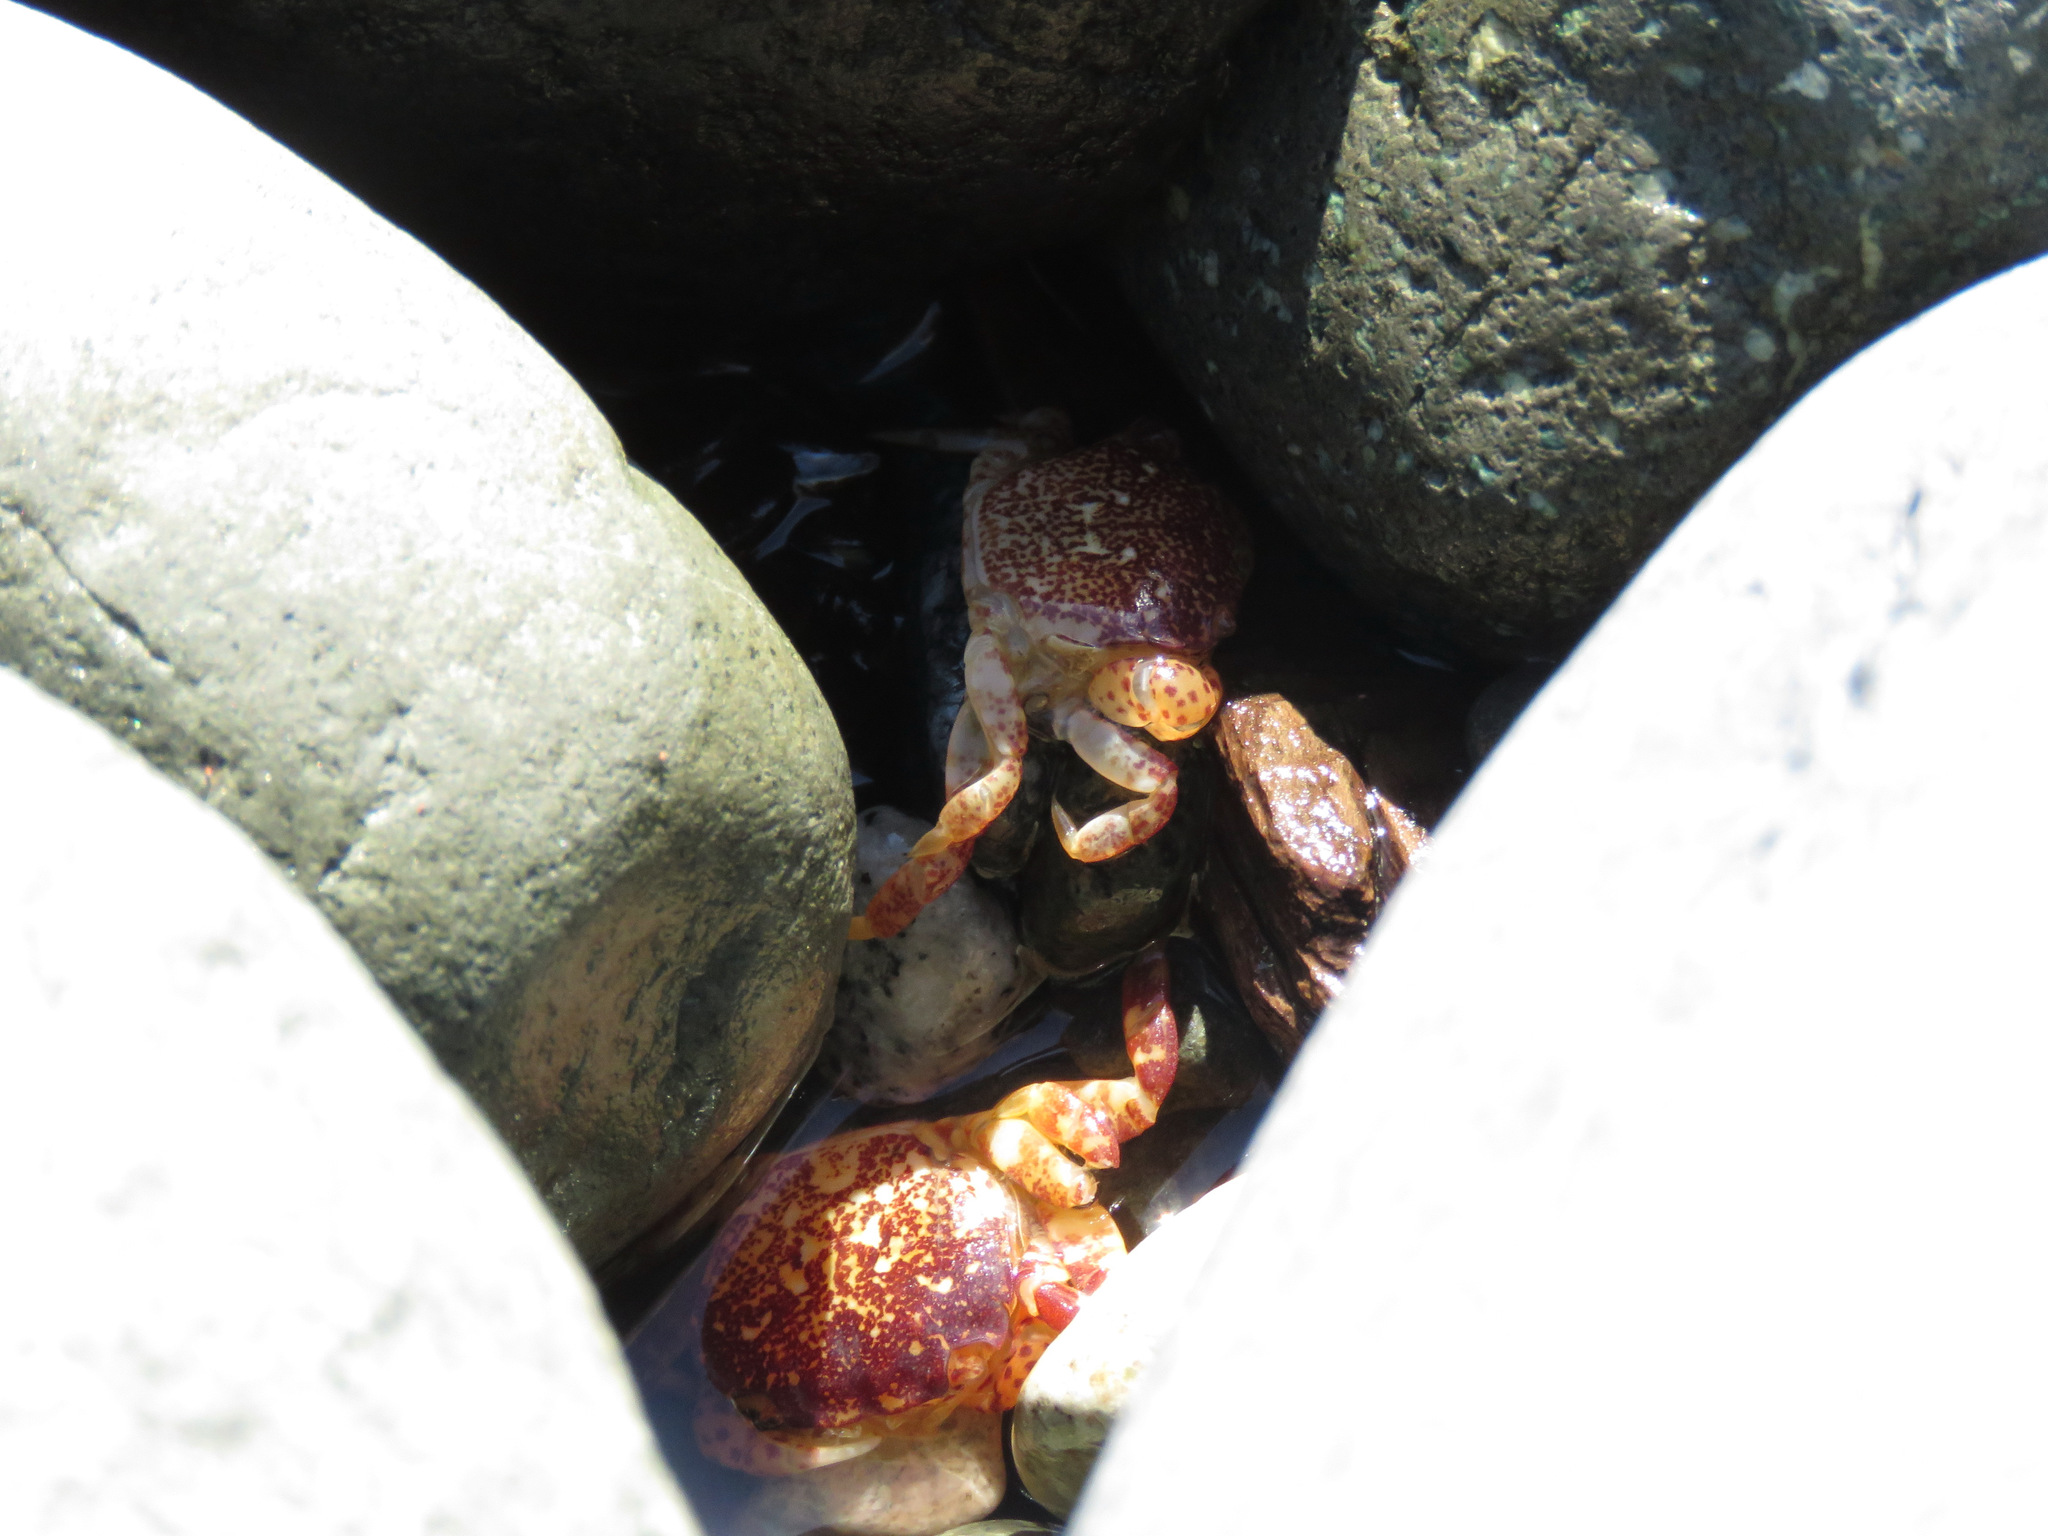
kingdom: Animalia
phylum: Arthropoda
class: Malacostraca
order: Decapoda
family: Varunidae
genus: Hemigrapsus
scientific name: Hemigrapsus nudus
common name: Purple shore crab
